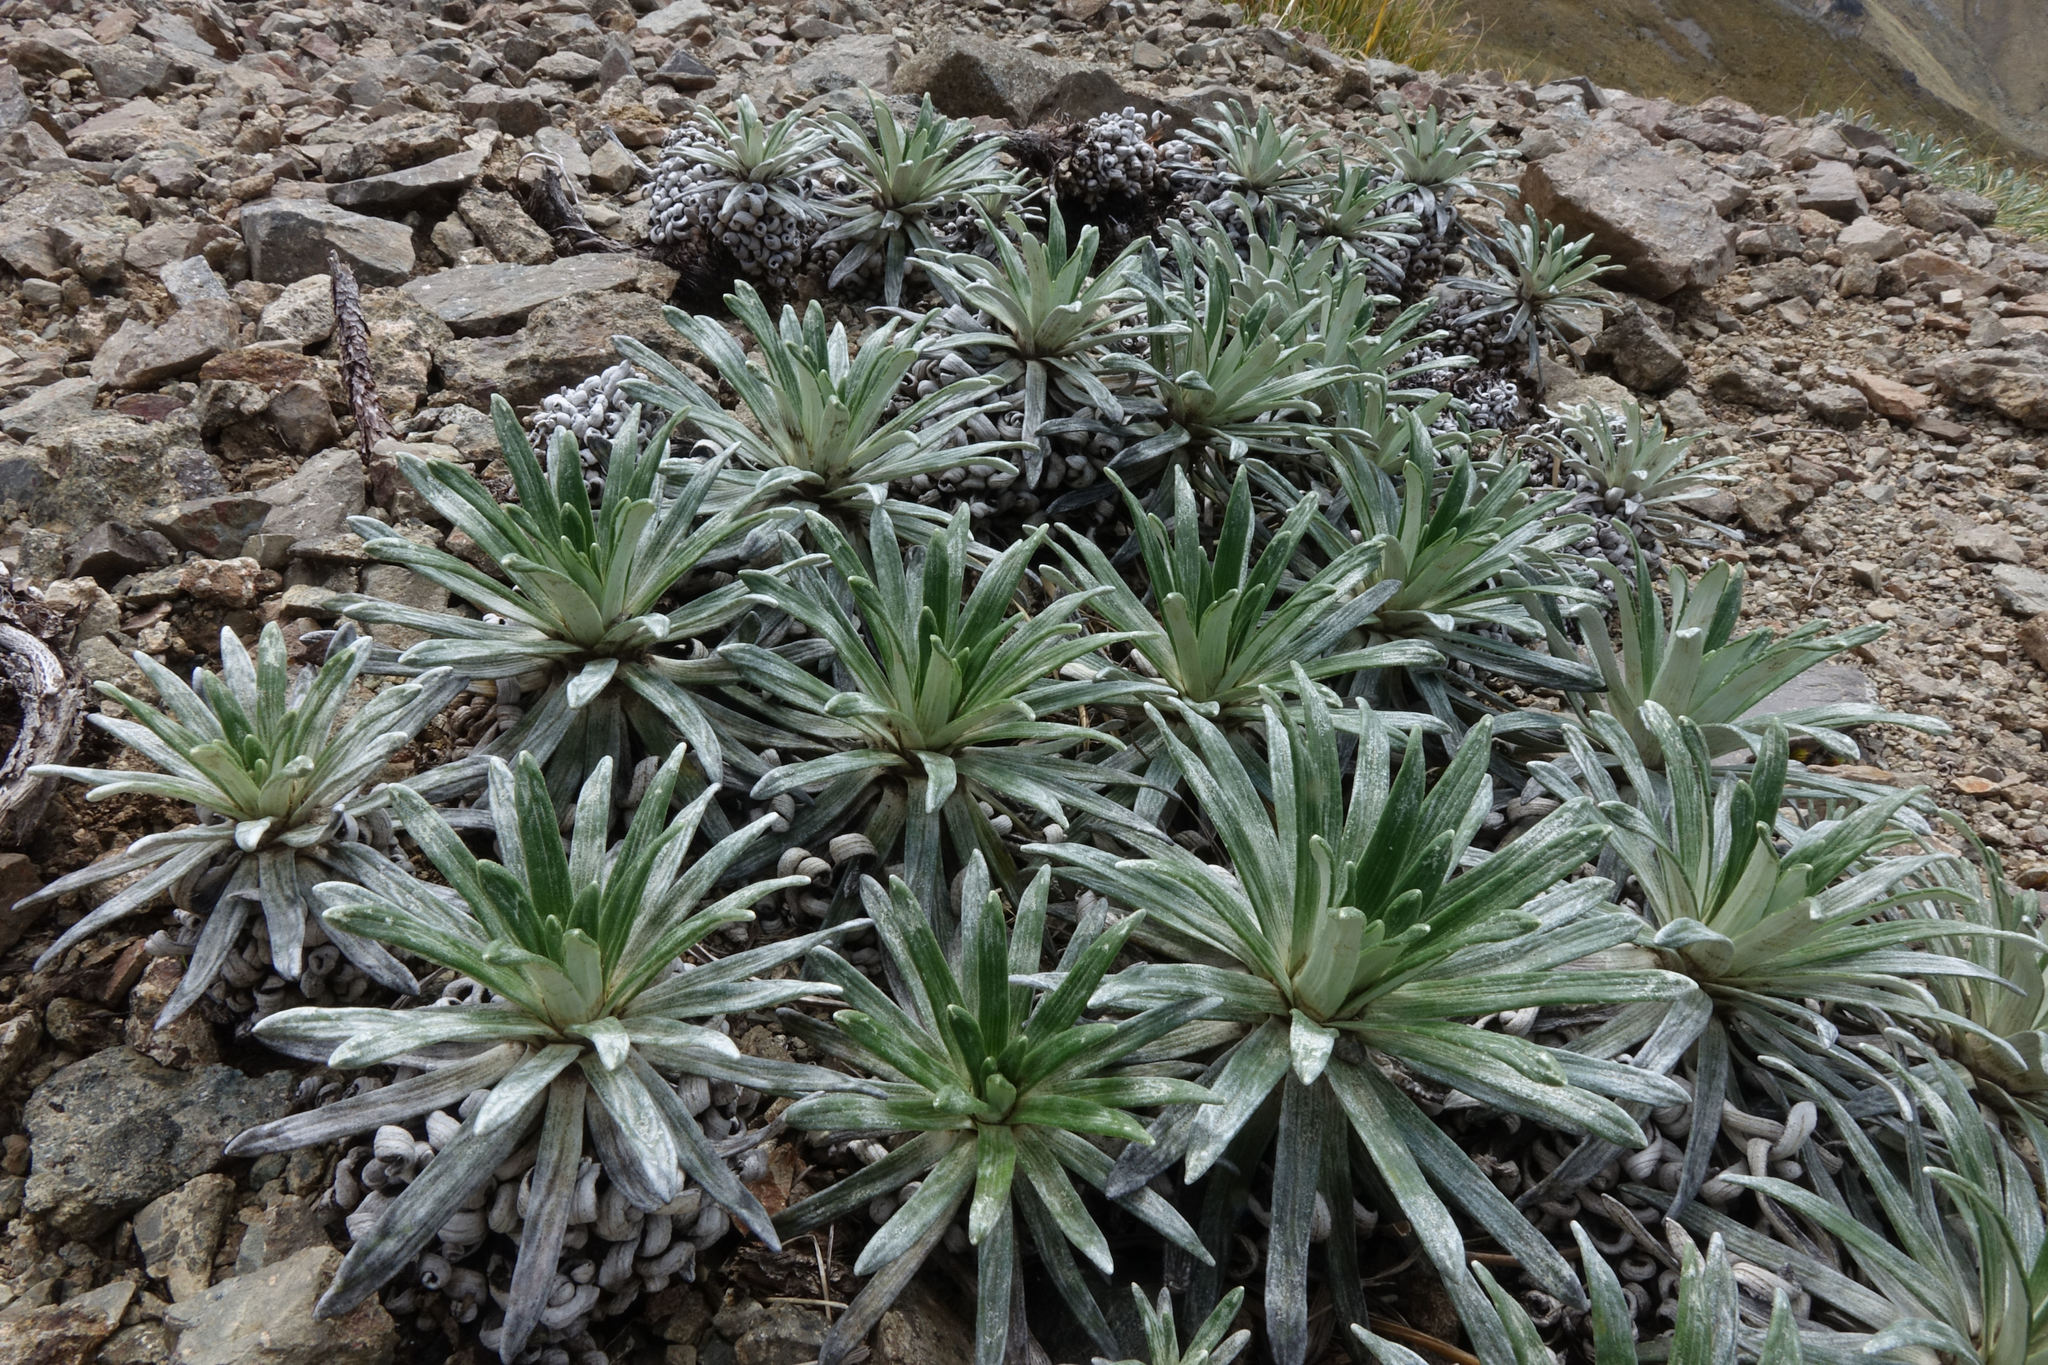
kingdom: Plantae
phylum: Tracheophyta
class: Magnoliopsida
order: Asterales
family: Asteraceae
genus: Celmisia
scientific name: Celmisia viscosa
